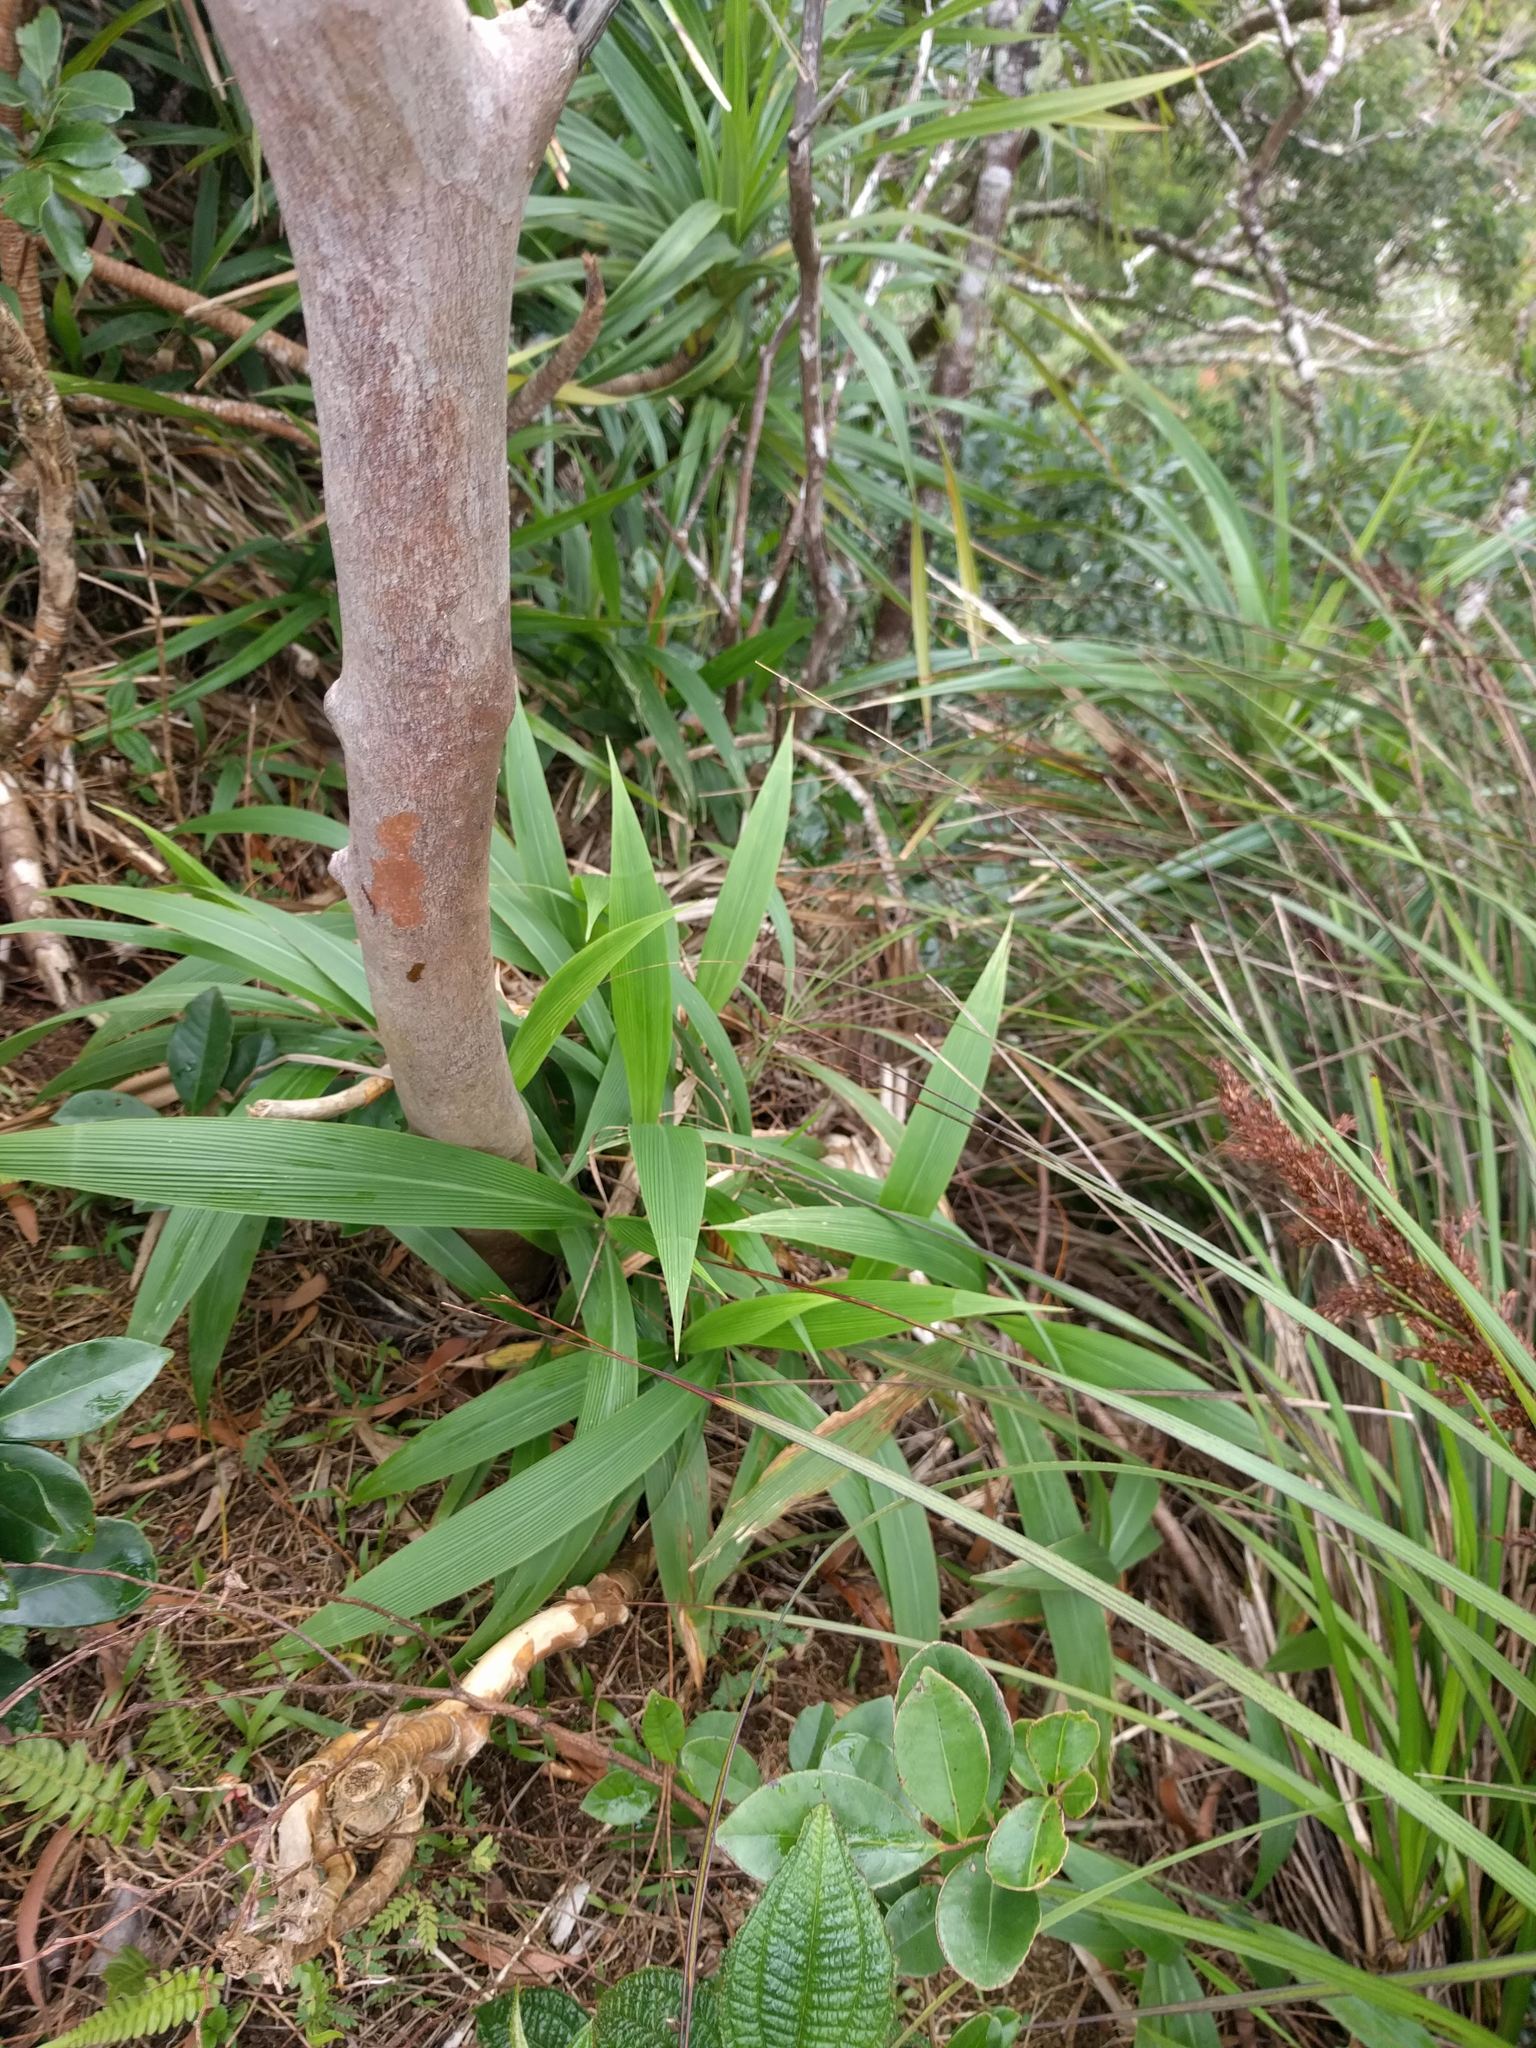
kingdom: Plantae
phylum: Tracheophyta
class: Liliopsida
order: Poales
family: Poaceae
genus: Setaria
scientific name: Setaria palmifolia
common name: Broadleaved bristlegrass
